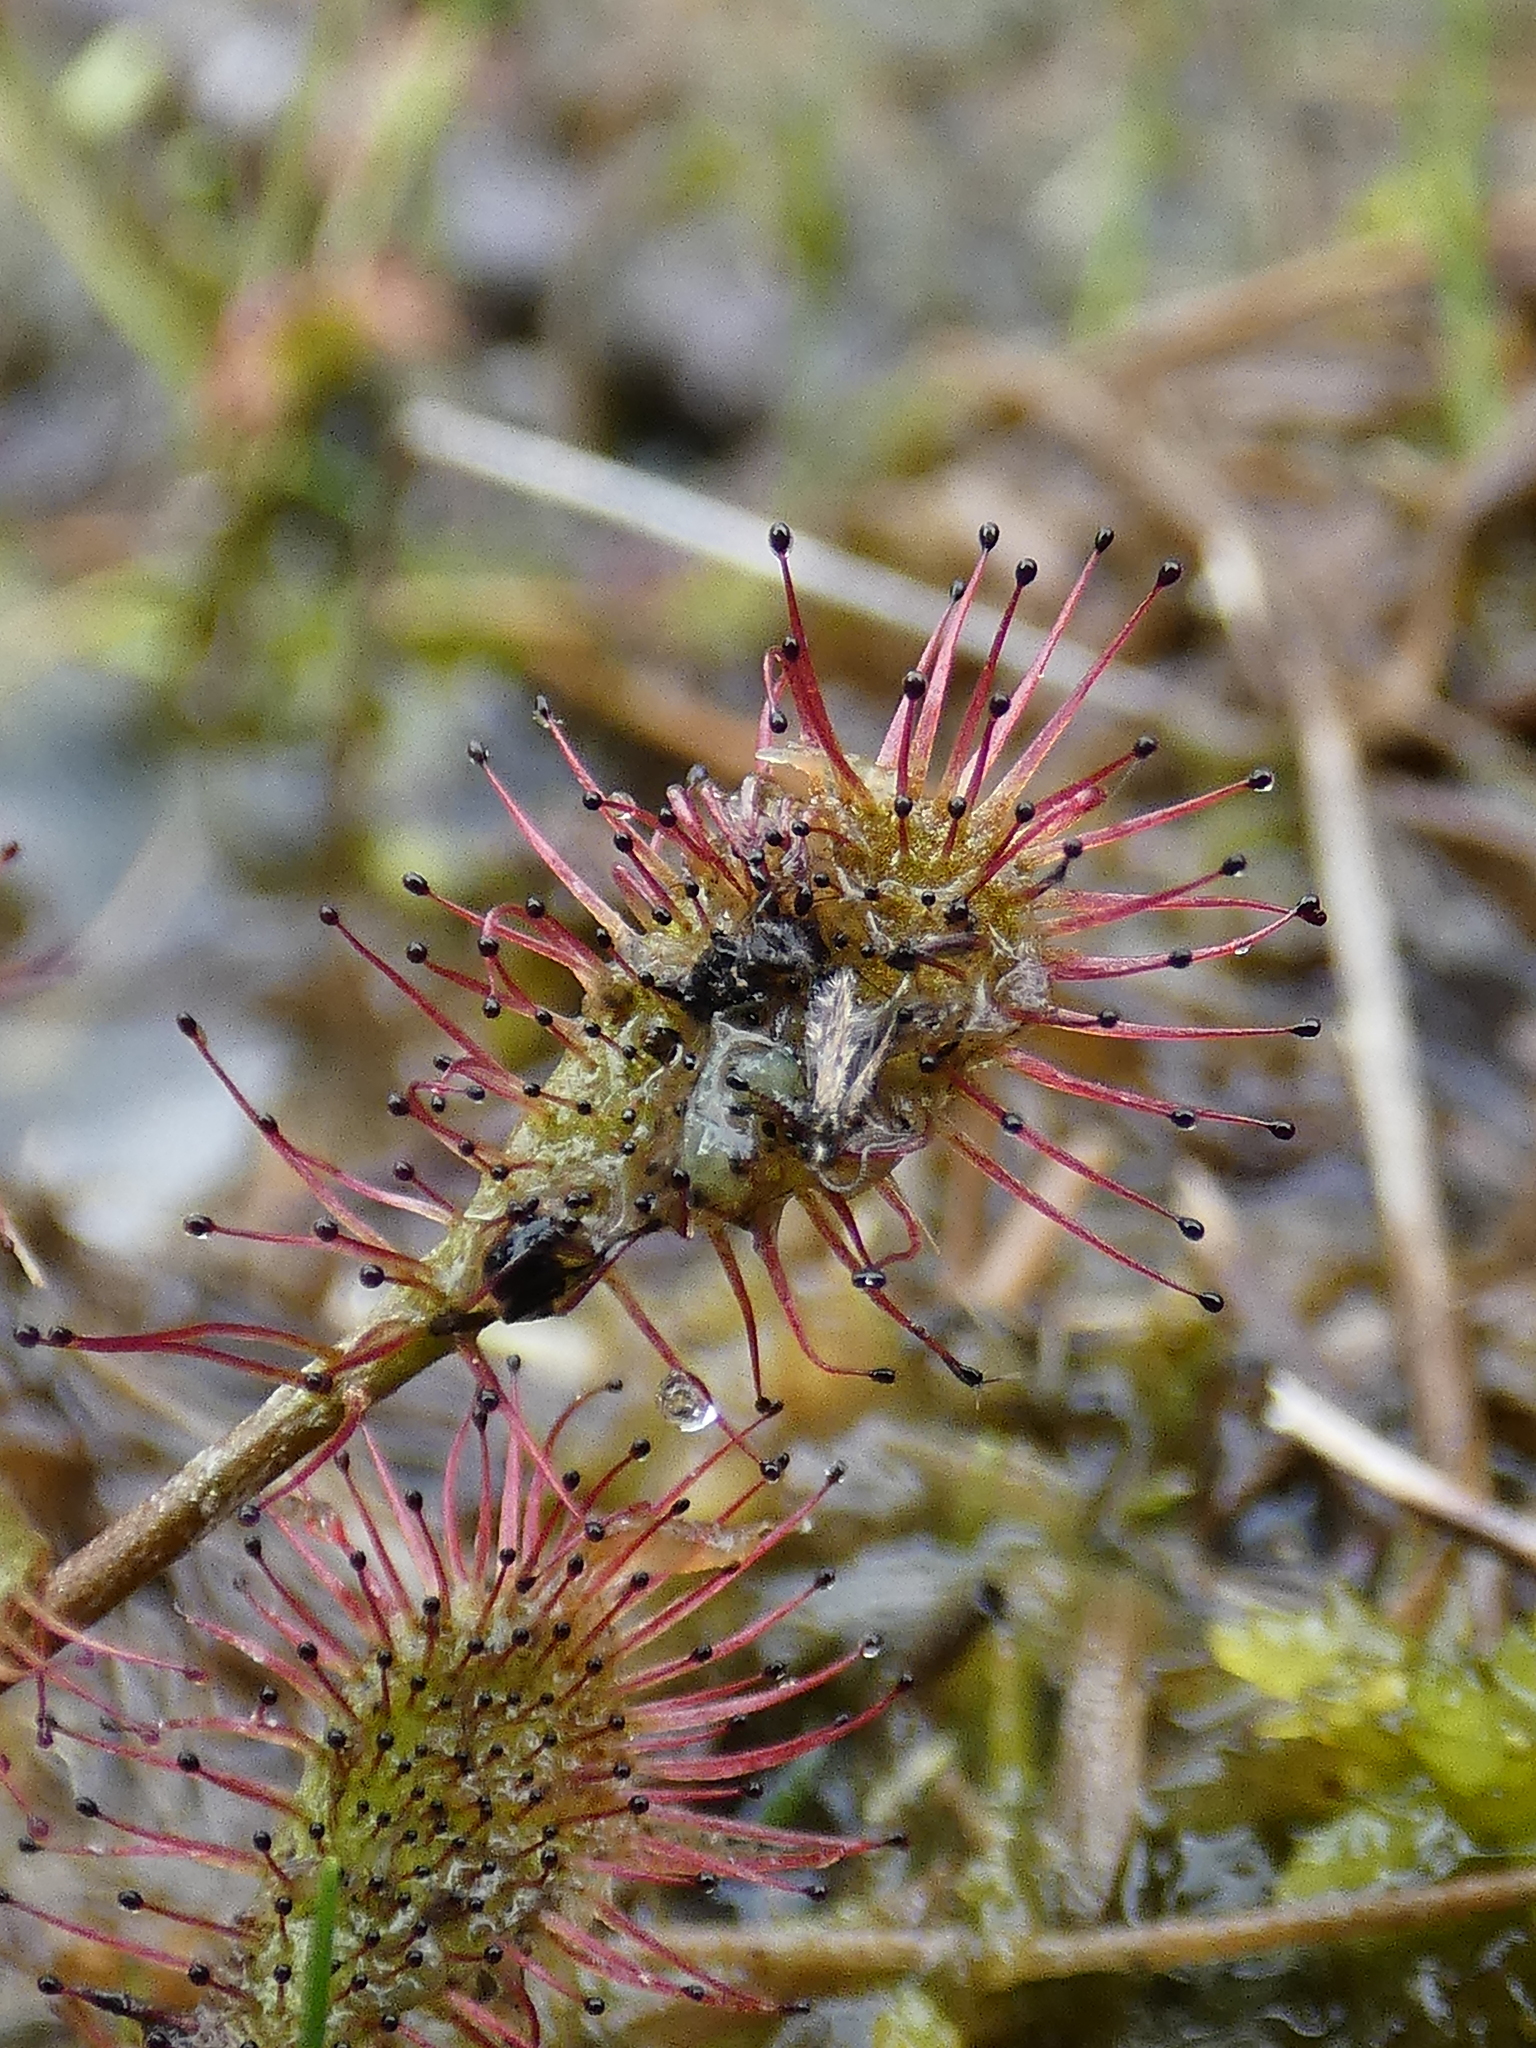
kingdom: Plantae
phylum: Tracheophyta
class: Magnoliopsida
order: Caryophyllales
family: Droseraceae
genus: Drosera
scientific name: Drosera intermedia
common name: Oblong-leaved sundew
